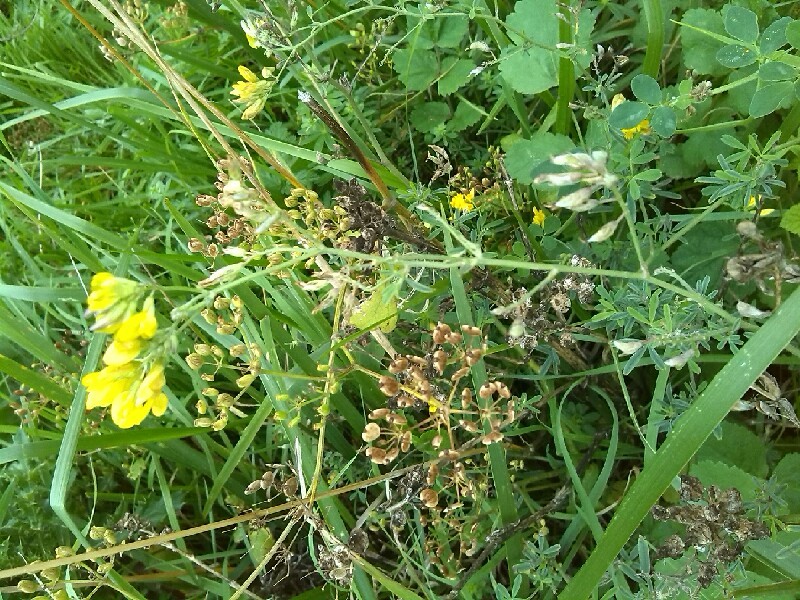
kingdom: Plantae
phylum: Tracheophyta
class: Magnoliopsida
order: Fabales
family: Fabaceae
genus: Medicago
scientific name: Medicago falcata
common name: Sickle medick
